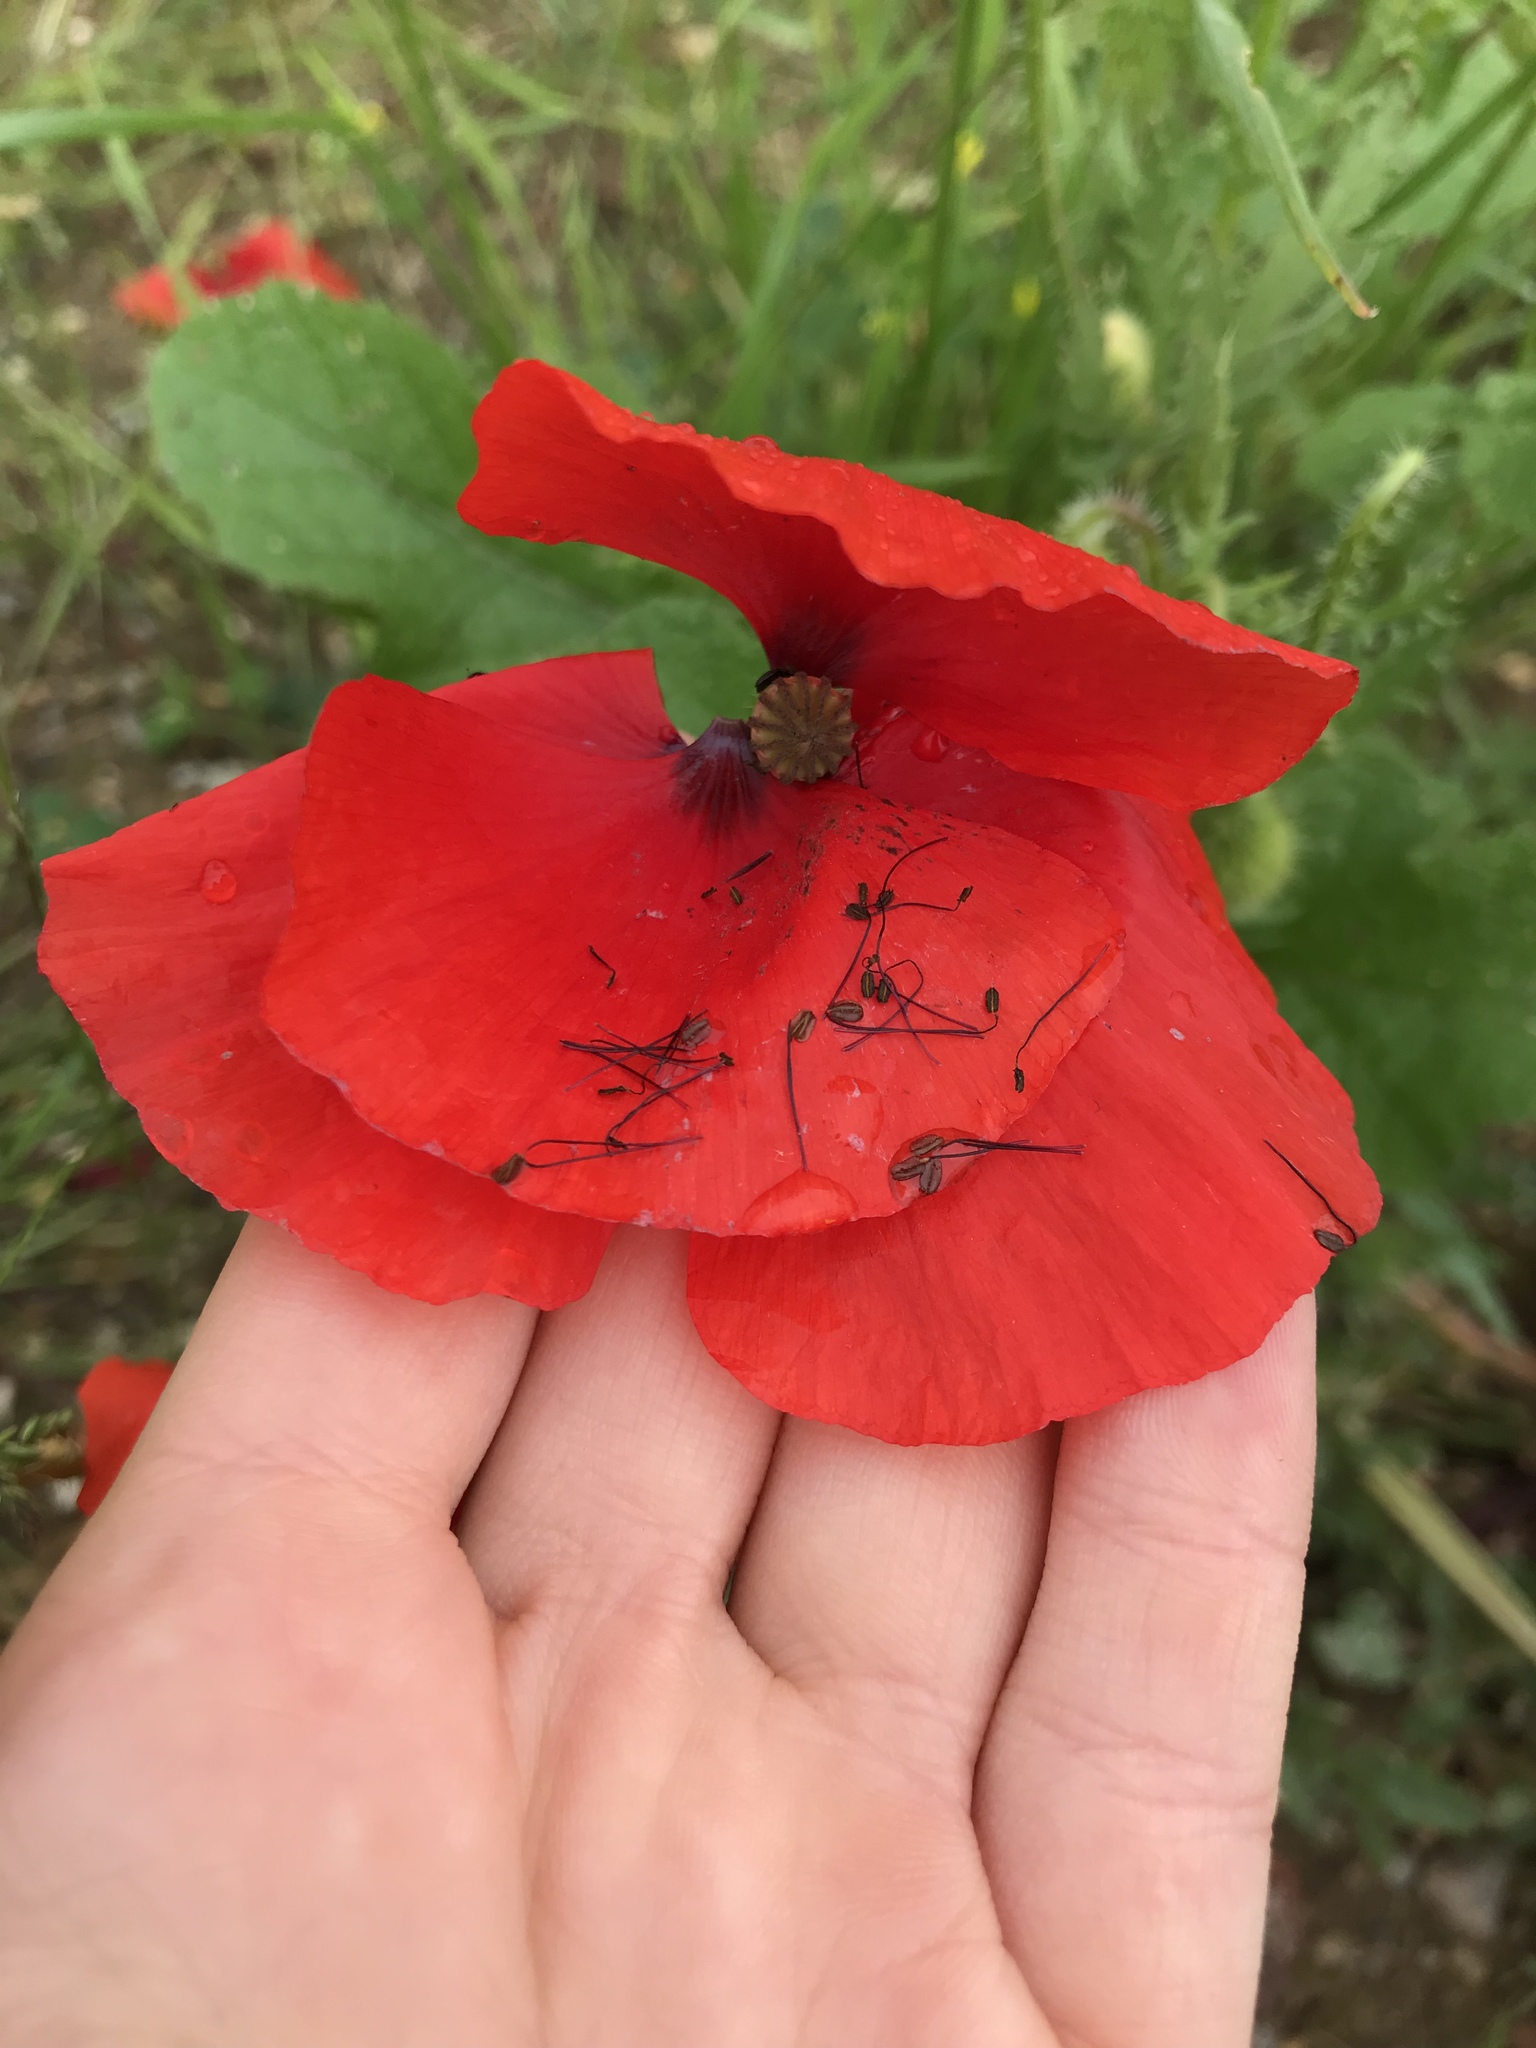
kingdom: Plantae
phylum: Tracheophyta
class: Magnoliopsida
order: Ranunculales
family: Papaveraceae
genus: Papaver
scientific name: Papaver rhoeas
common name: Corn poppy
